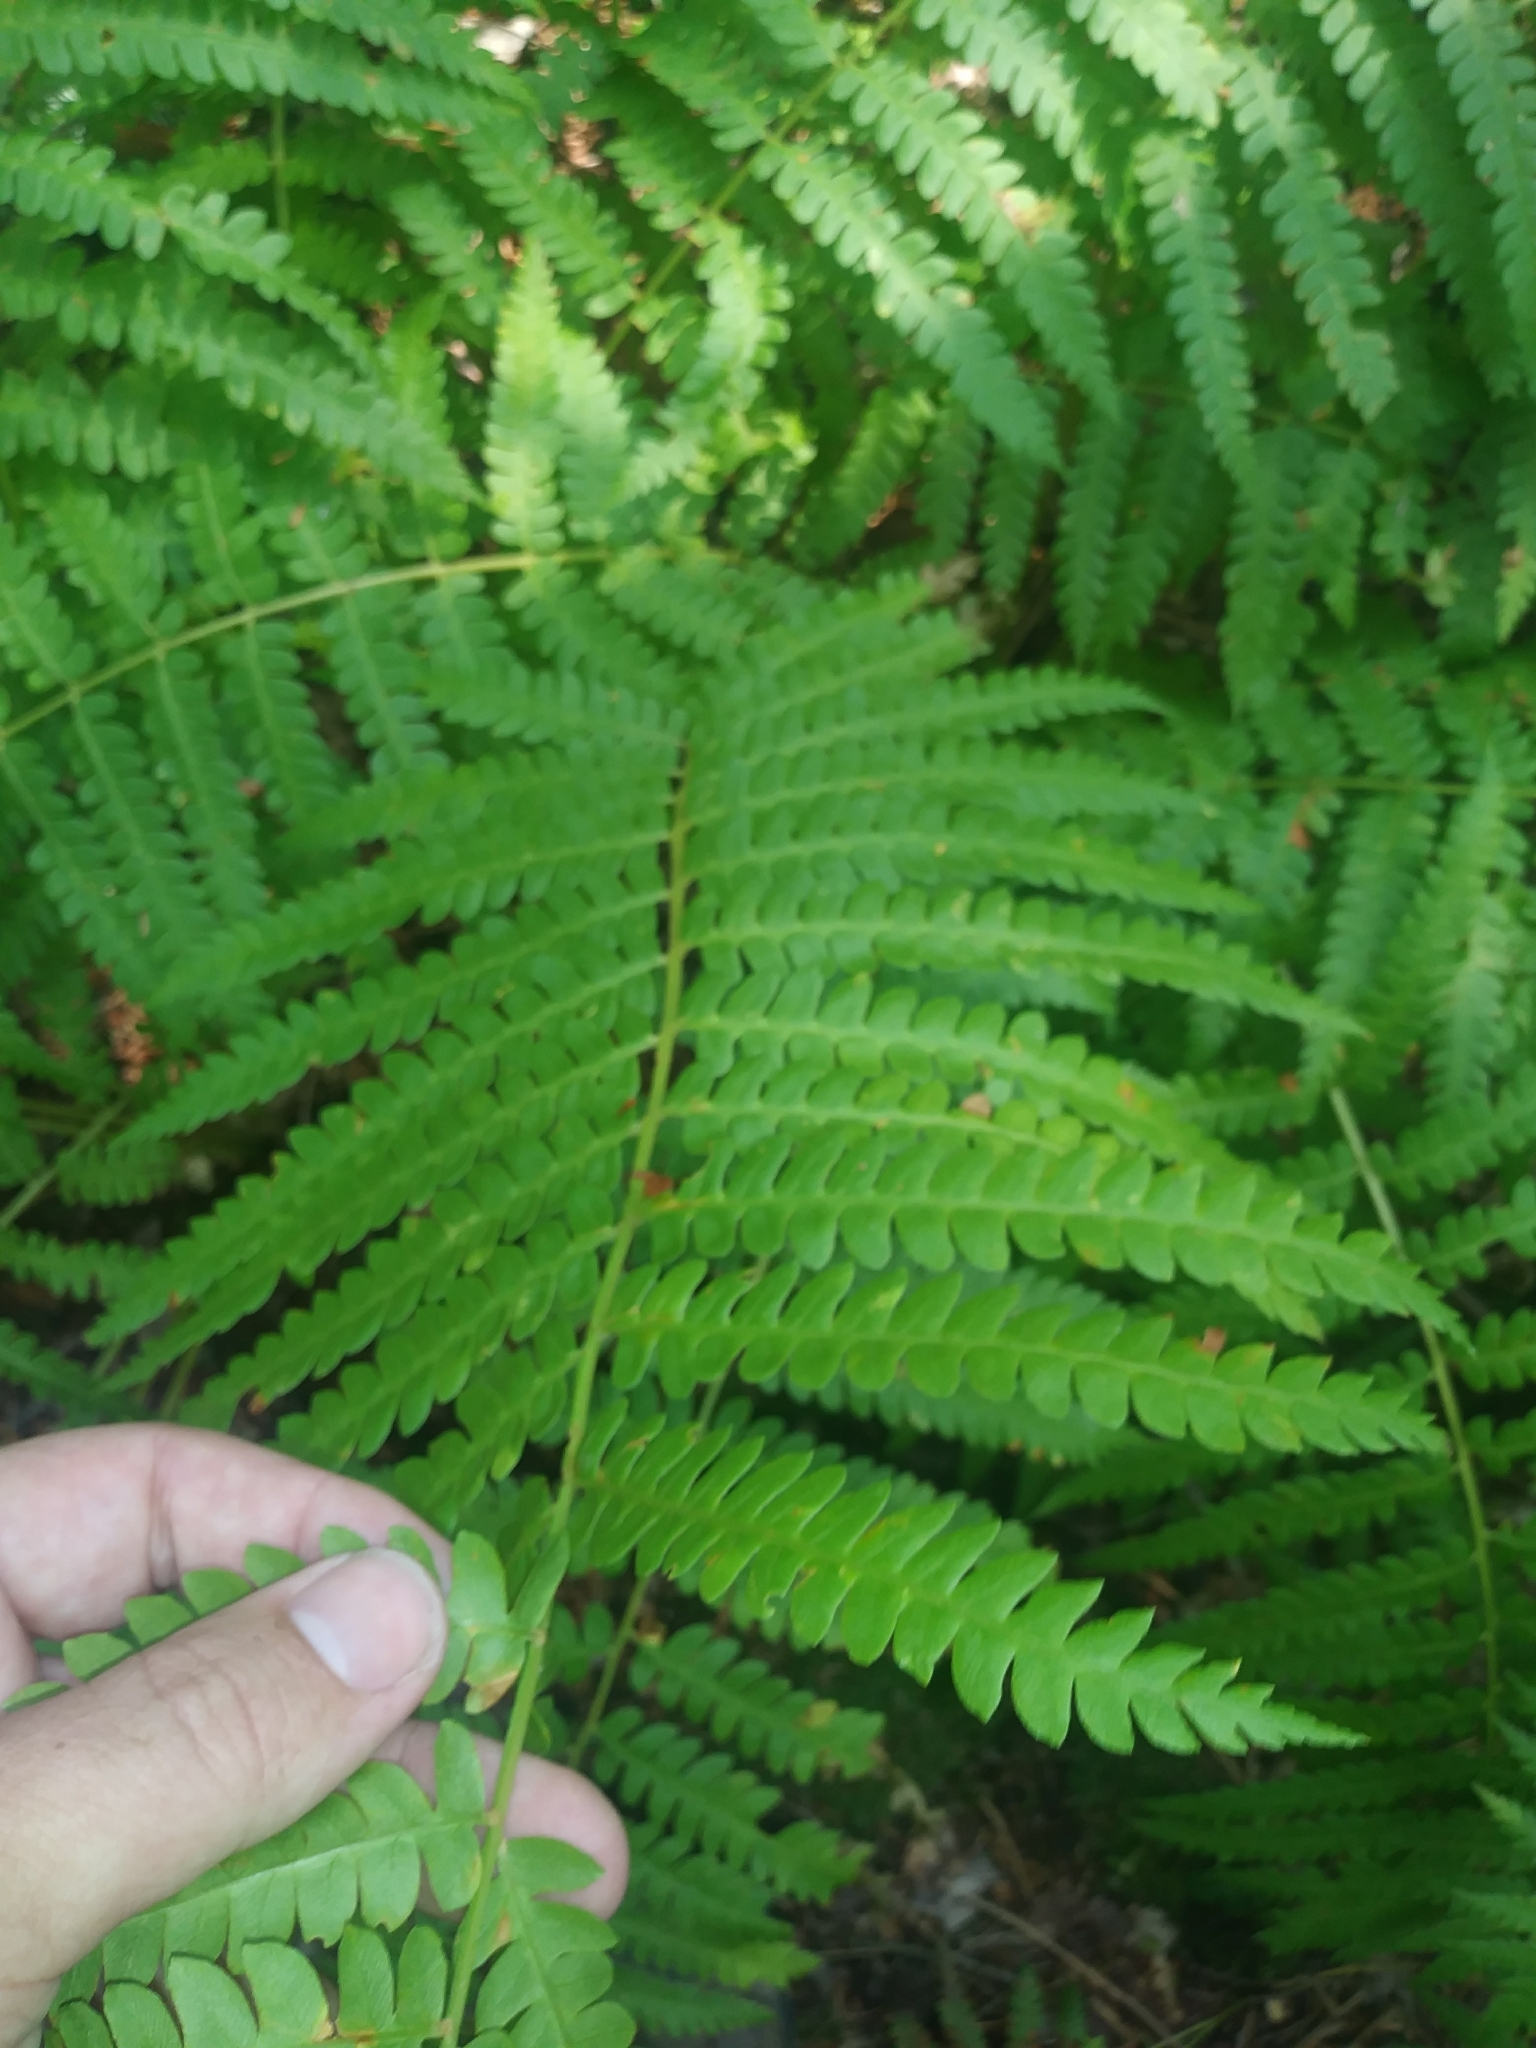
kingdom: Plantae
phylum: Tracheophyta
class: Polypodiopsida
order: Osmundales
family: Osmundaceae
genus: Osmundastrum
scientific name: Osmundastrum cinnamomeum
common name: Cinnamon fern
